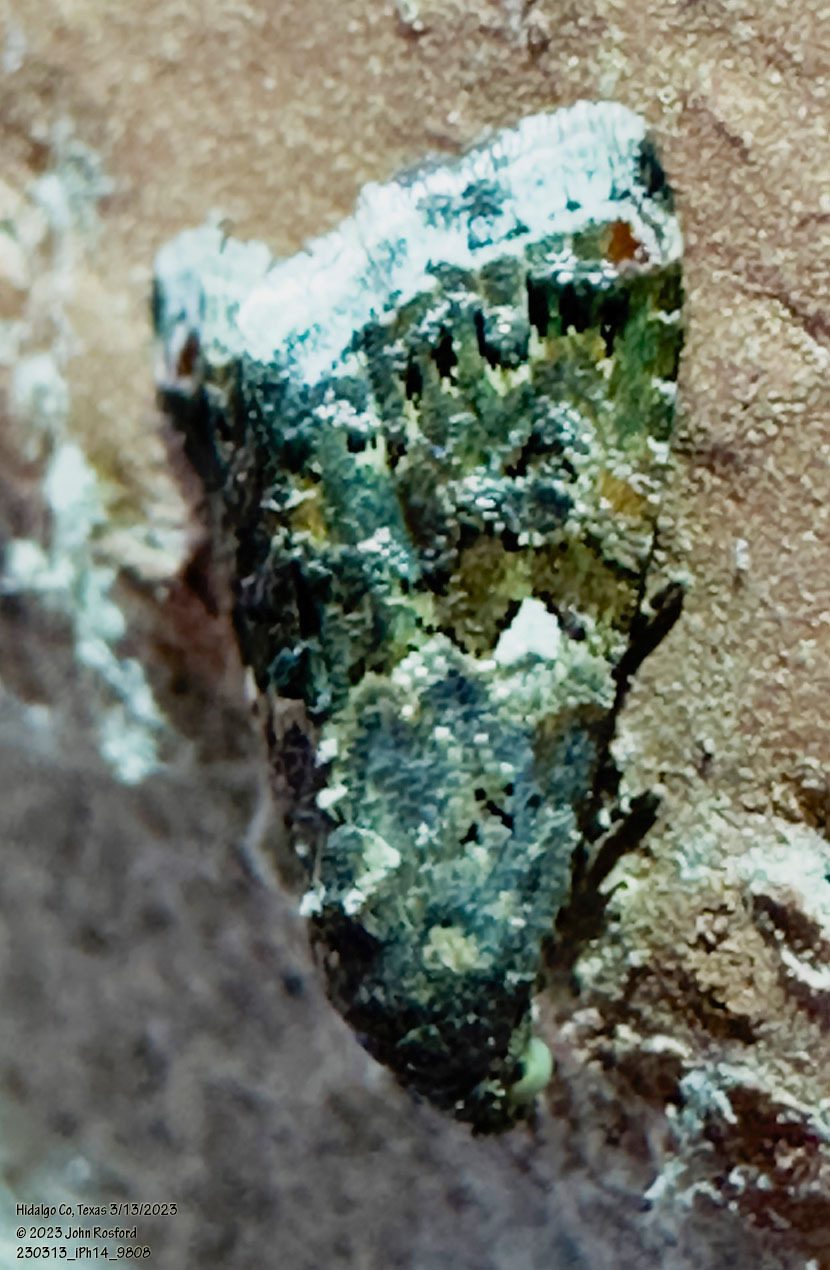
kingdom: Animalia
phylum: Arthropoda
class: Insecta
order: Lepidoptera
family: Noctuidae
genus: Tripudia
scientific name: Tripudia luxuriosa
